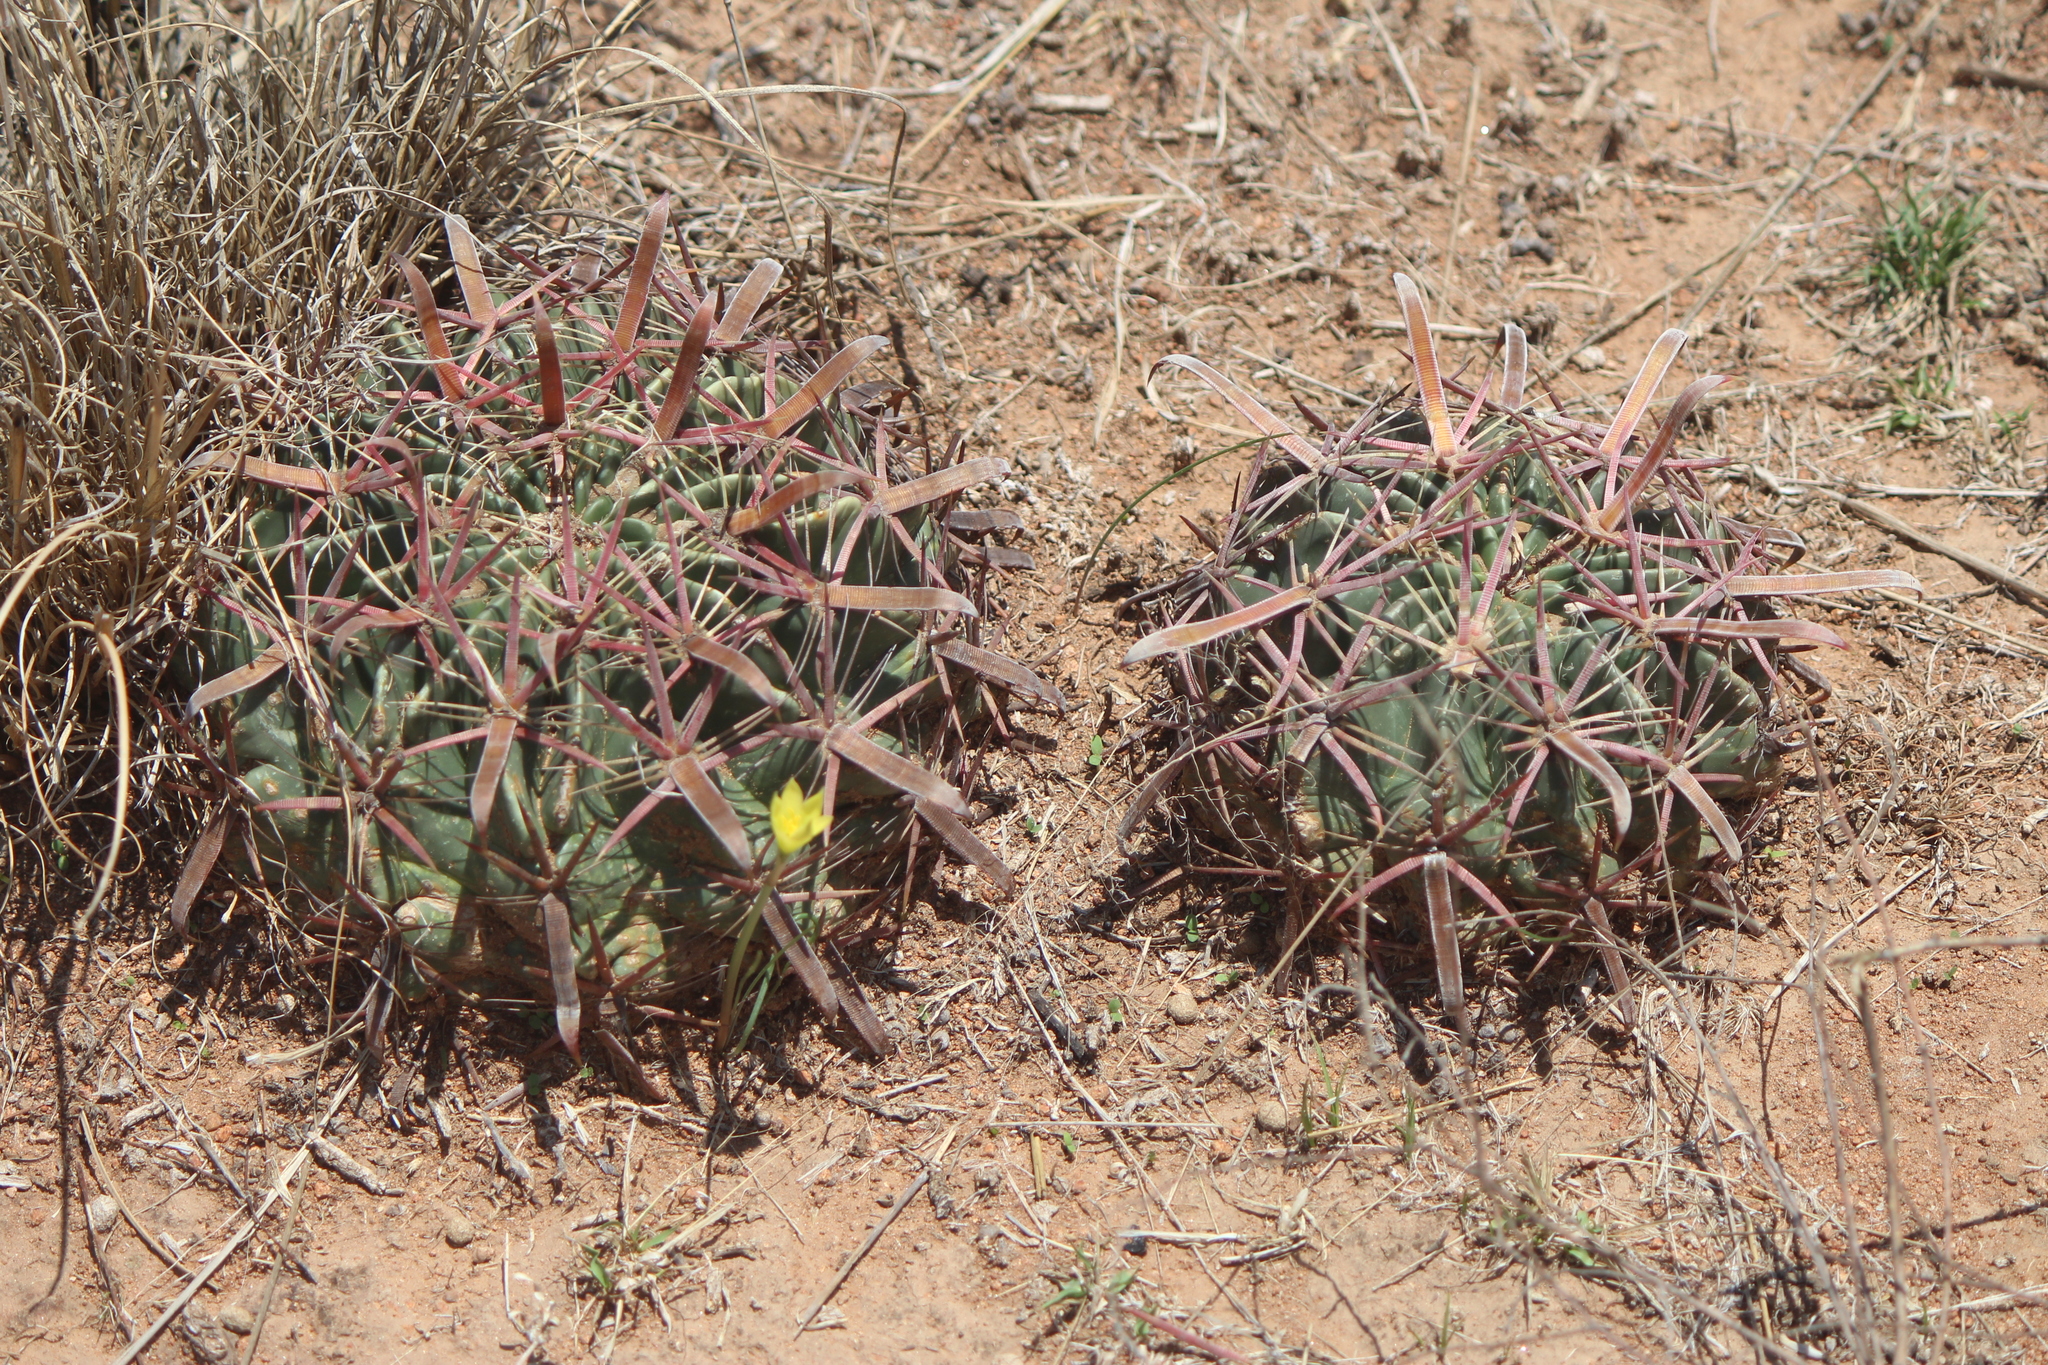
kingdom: Plantae
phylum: Tracheophyta
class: Magnoliopsida
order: Caryophyllales
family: Cactaceae
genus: Ferocactus
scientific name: Ferocactus latispinus
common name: Devil's-tongue cactus
